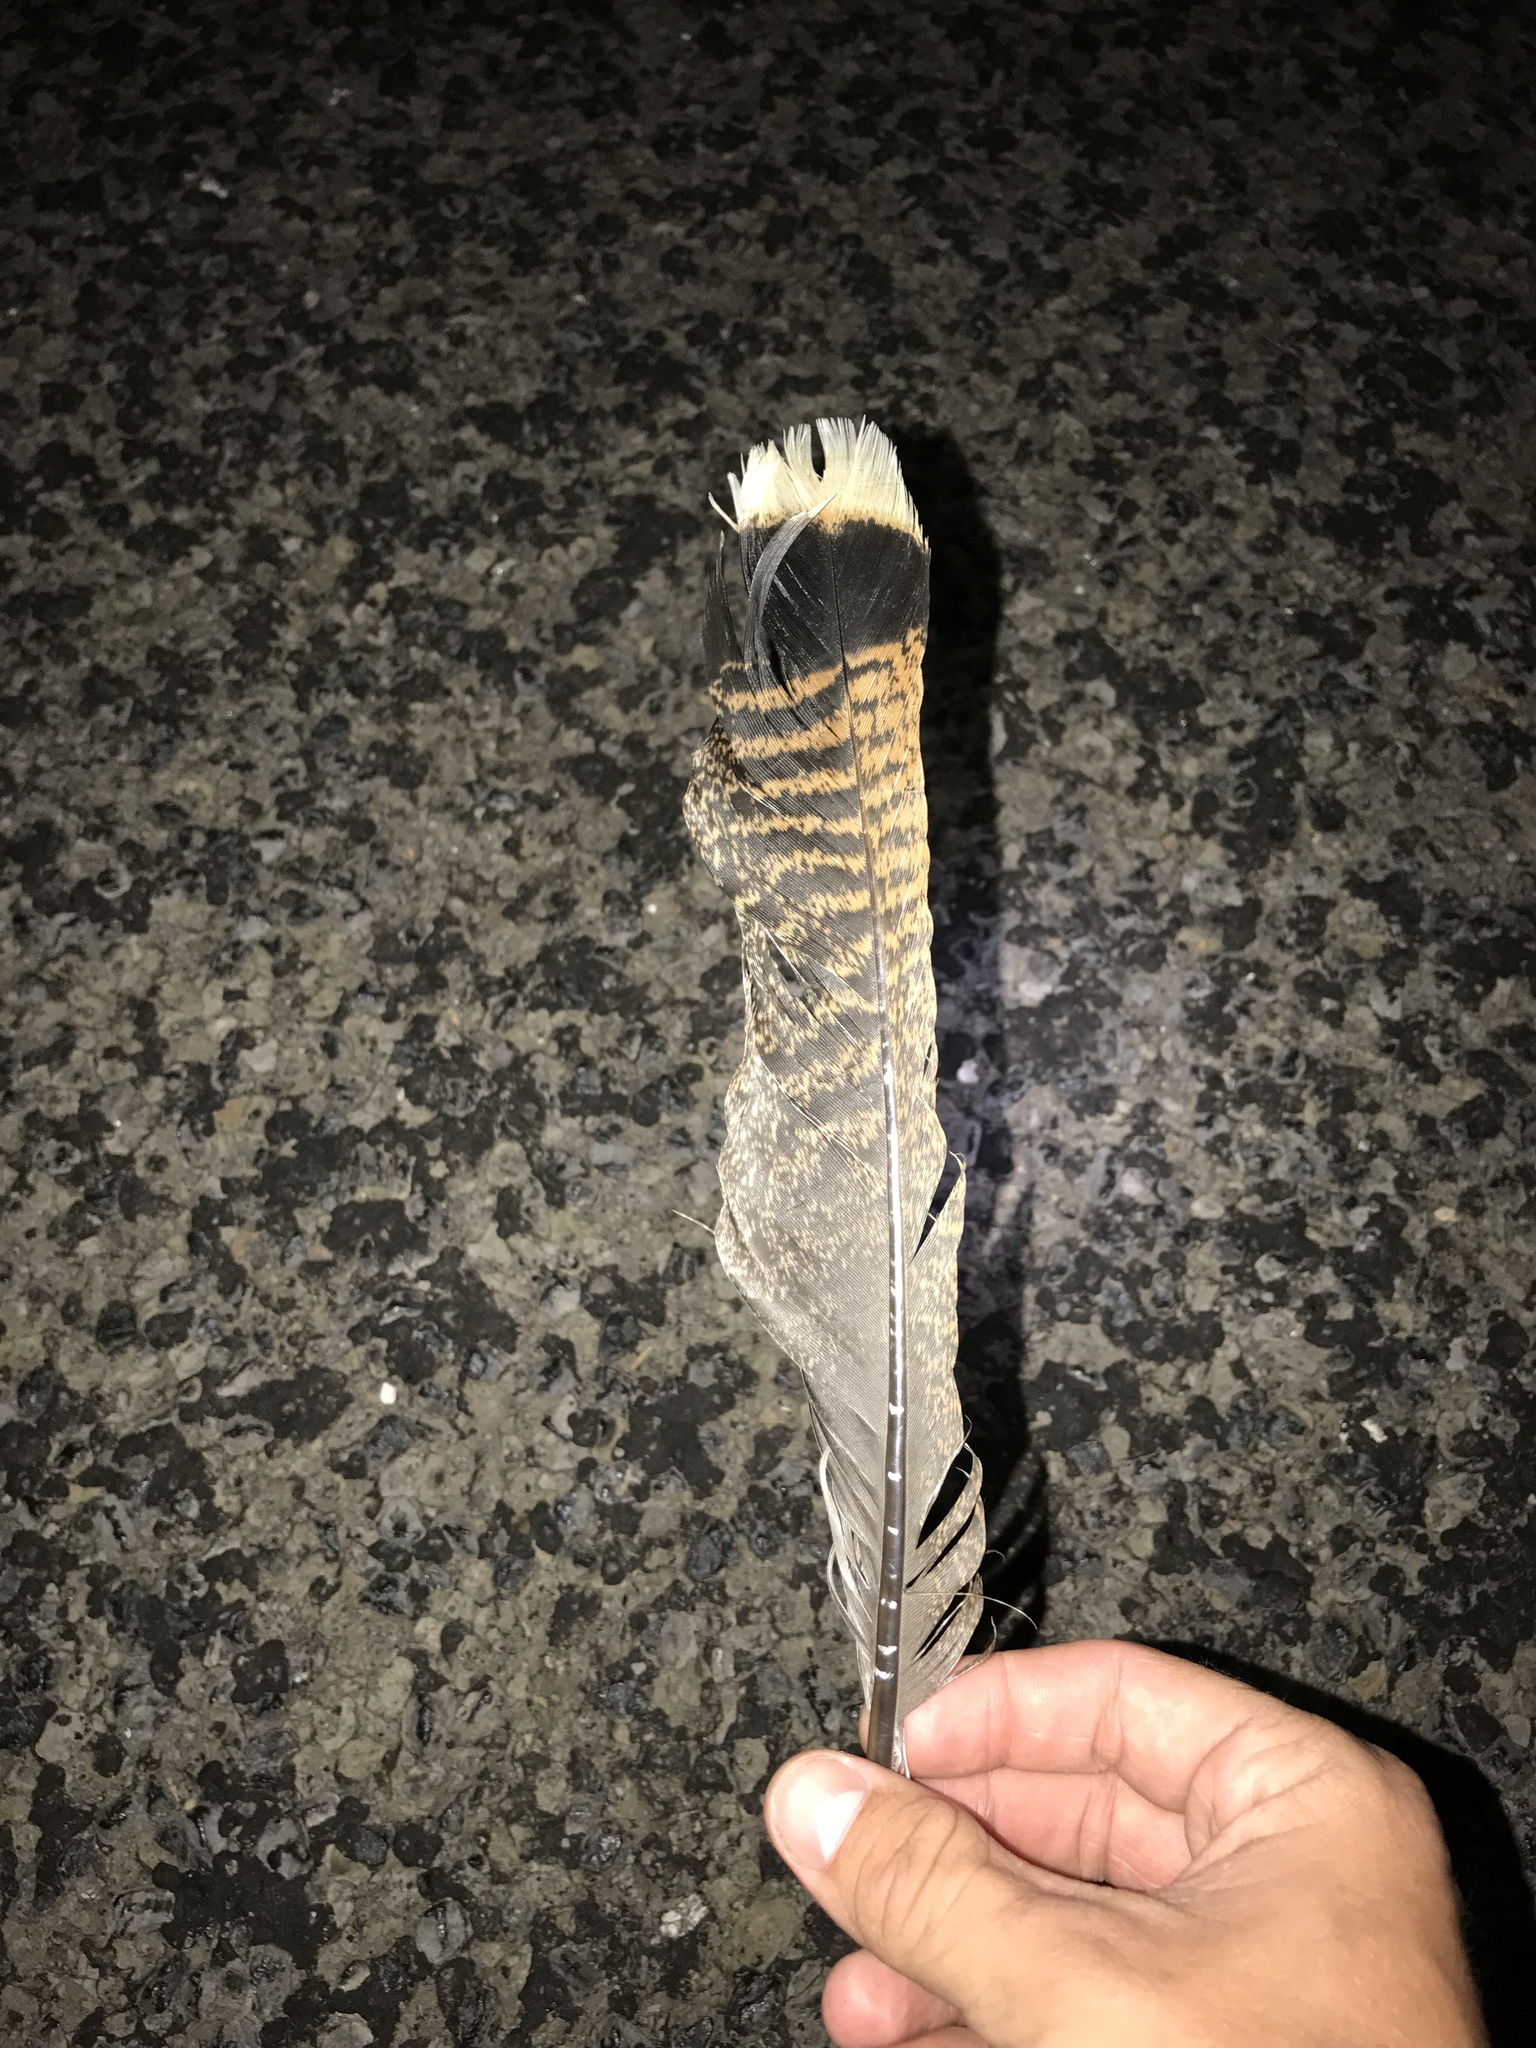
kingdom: Animalia
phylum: Chordata
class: Aves
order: Galliformes
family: Phasianidae
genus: Meleagris
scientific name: Meleagris gallopavo
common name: Wild turkey
